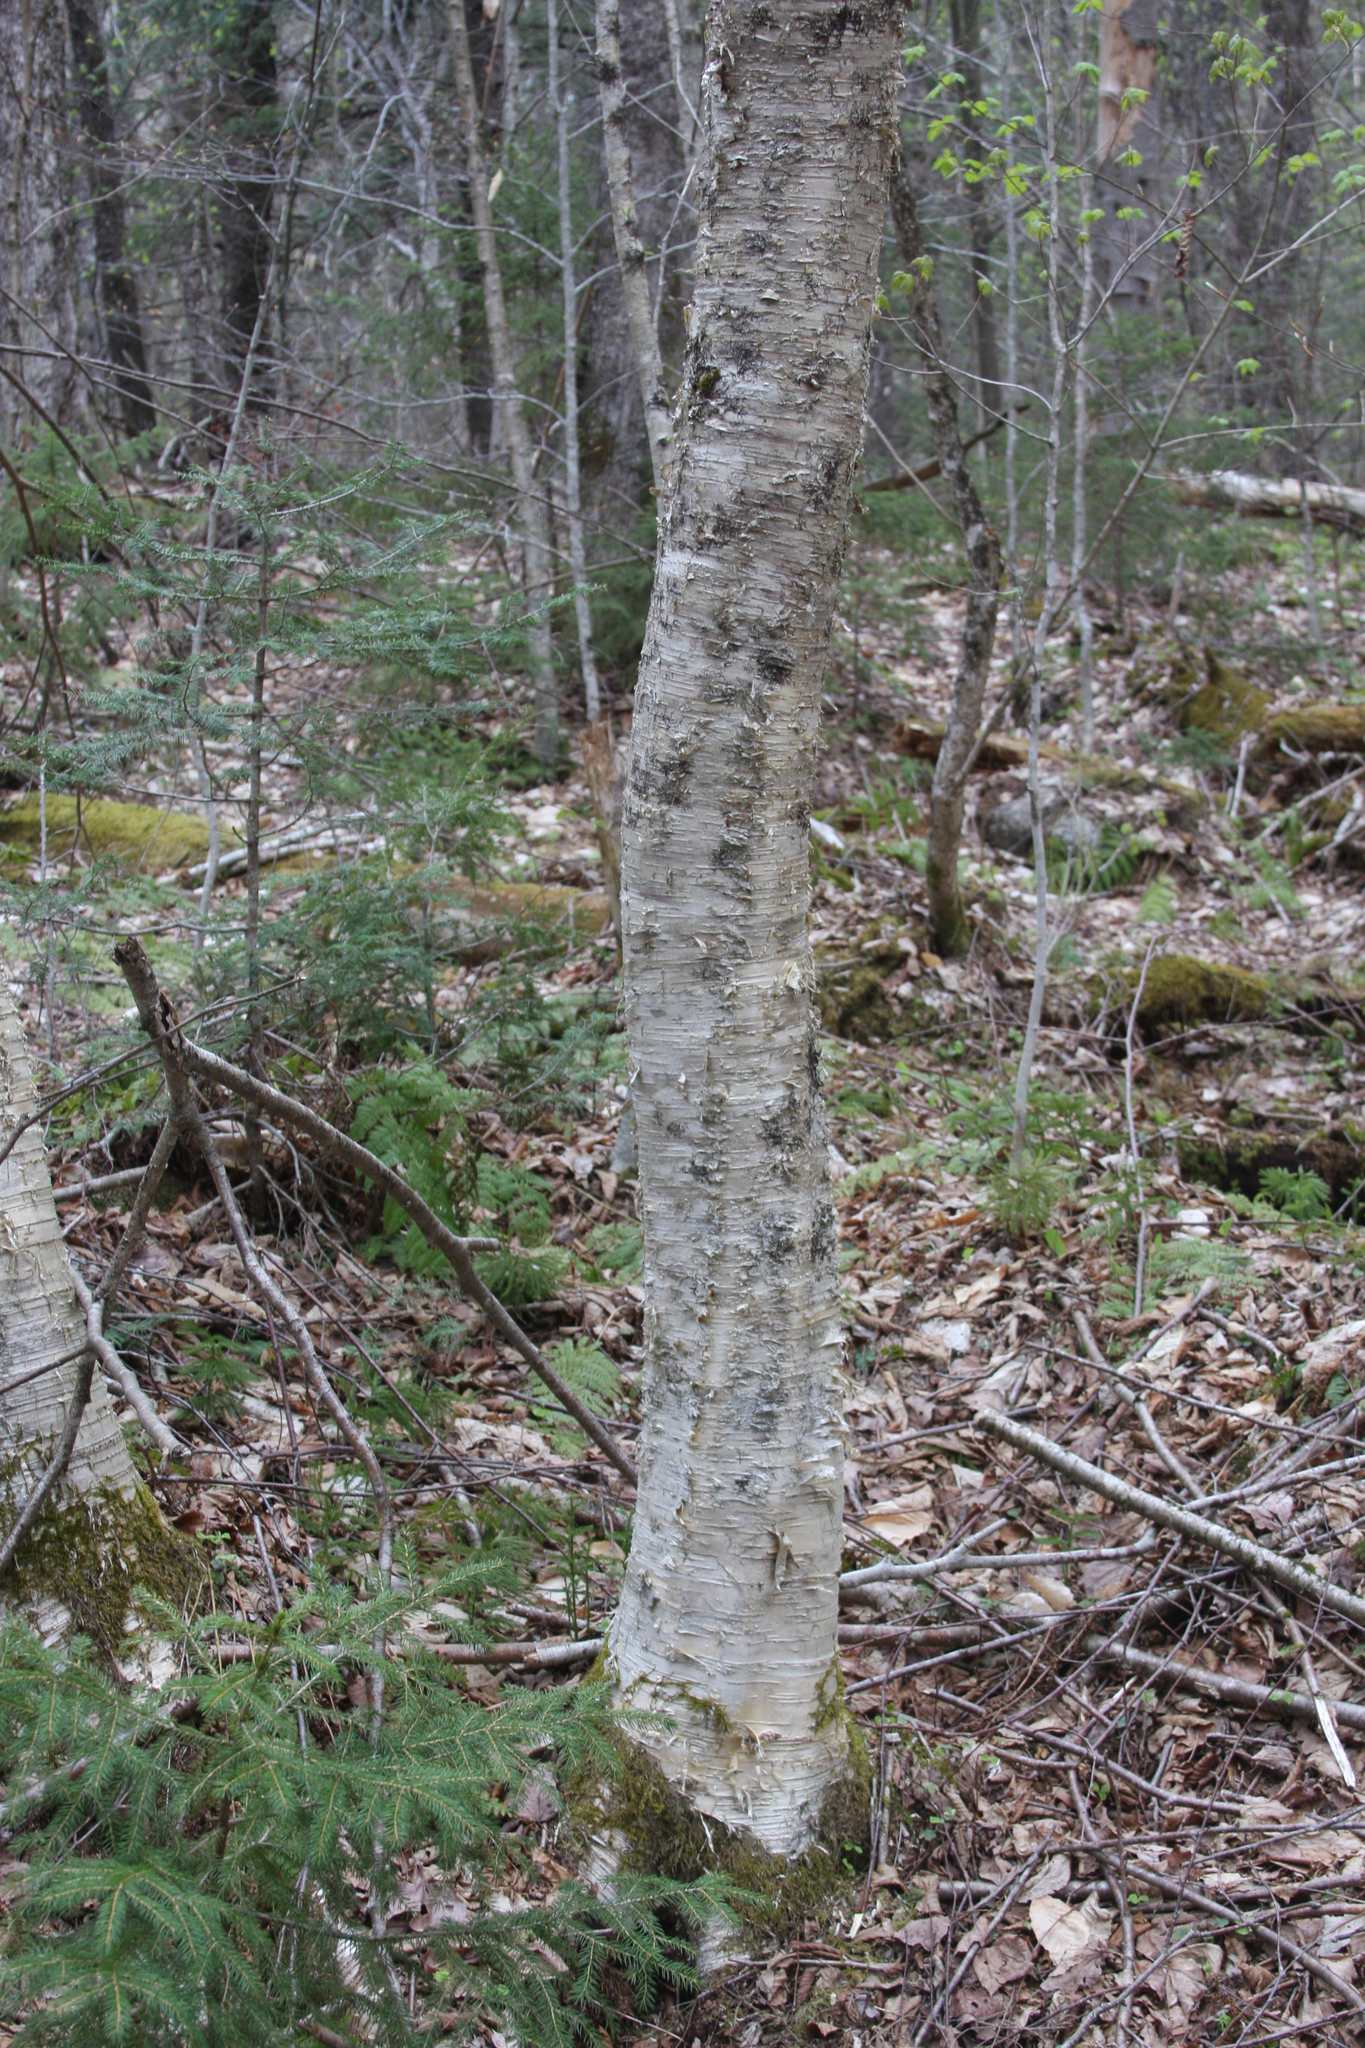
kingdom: Plantae
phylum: Tracheophyta
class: Magnoliopsida
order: Fagales
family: Betulaceae
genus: Betula
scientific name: Betula alleghaniensis
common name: Yellow birch
